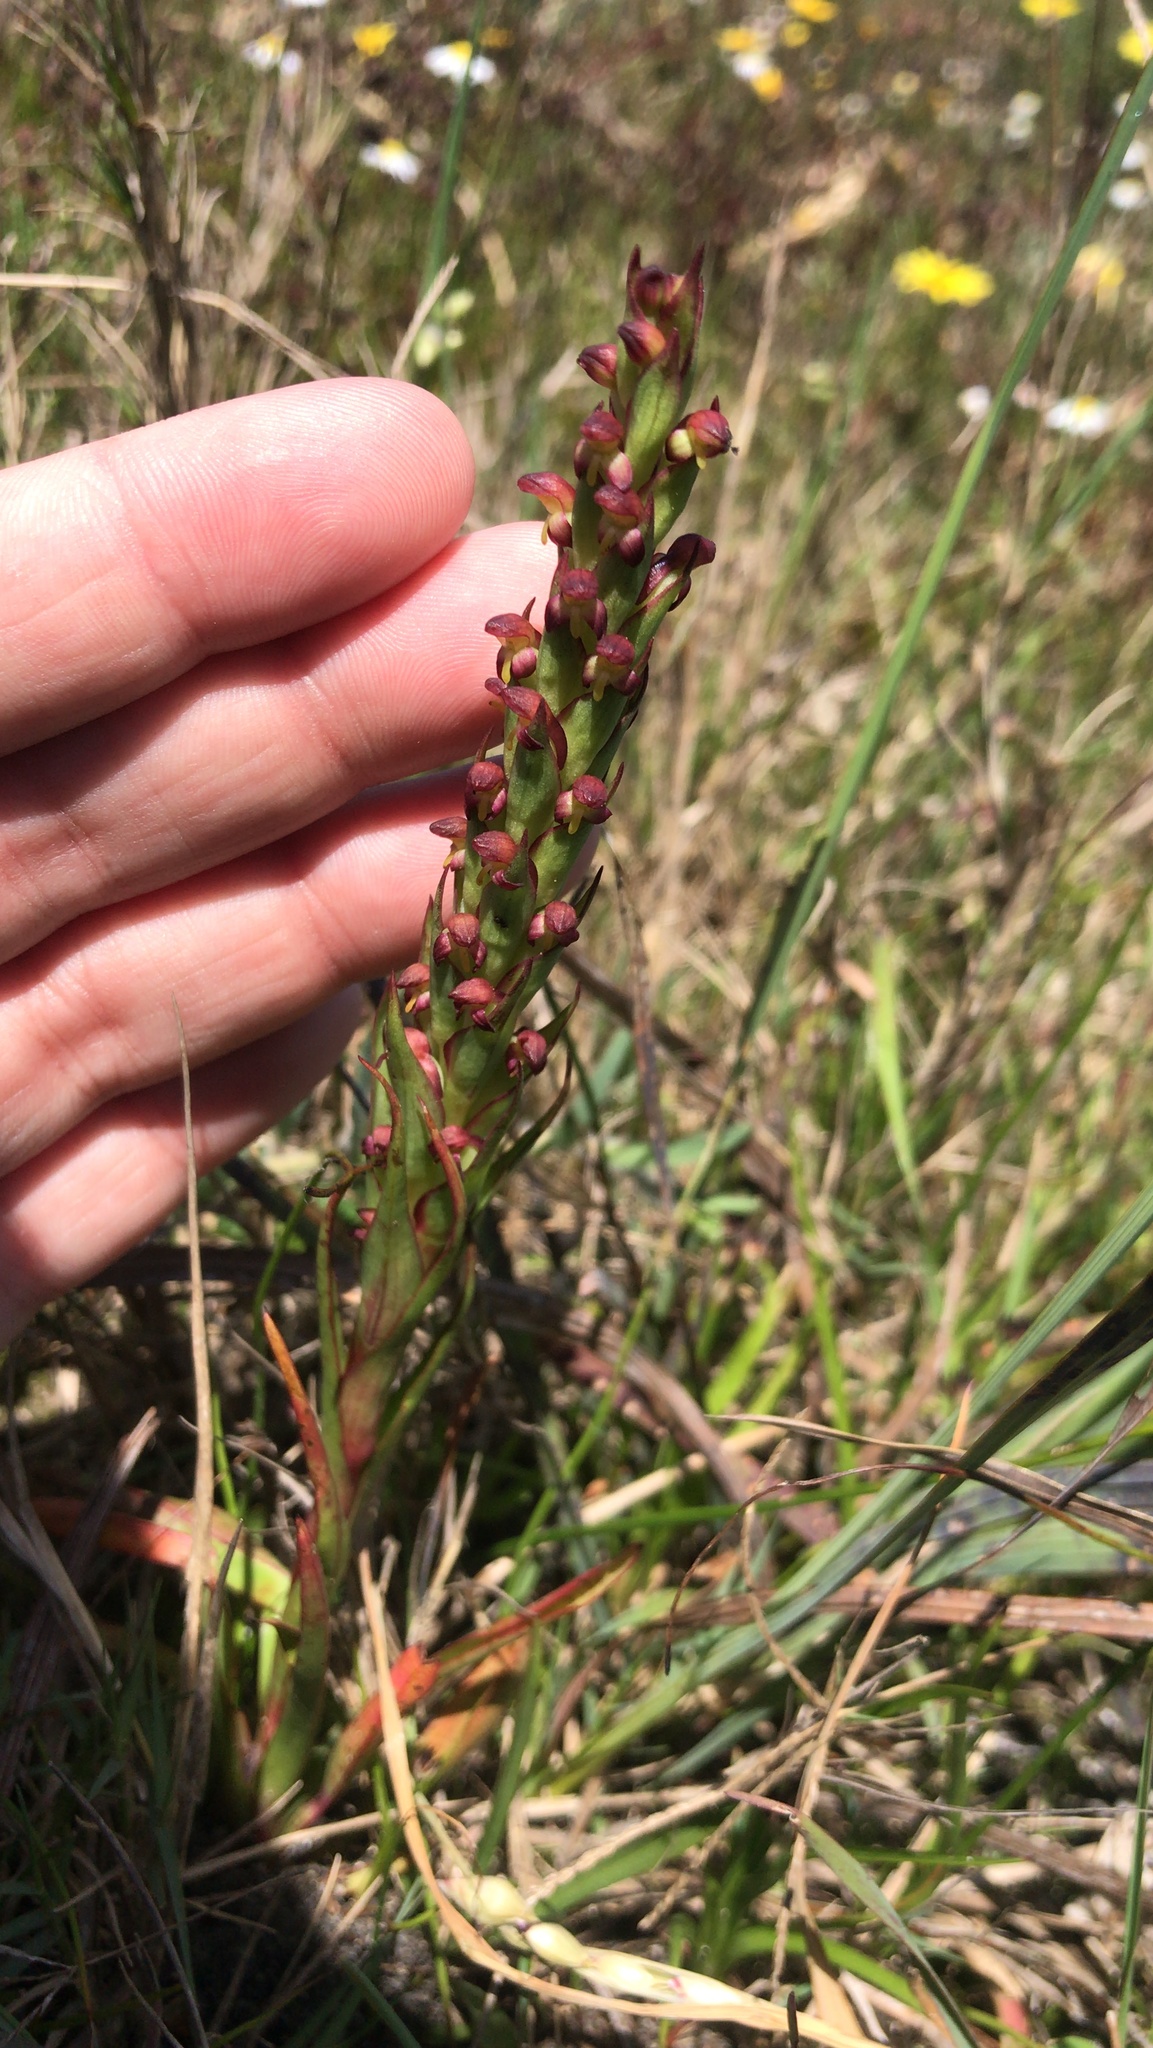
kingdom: Plantae
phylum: Tracheophyta
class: Liliopsida
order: Asparagales
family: Orchidaceae
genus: Disa
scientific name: Disa bracteata
